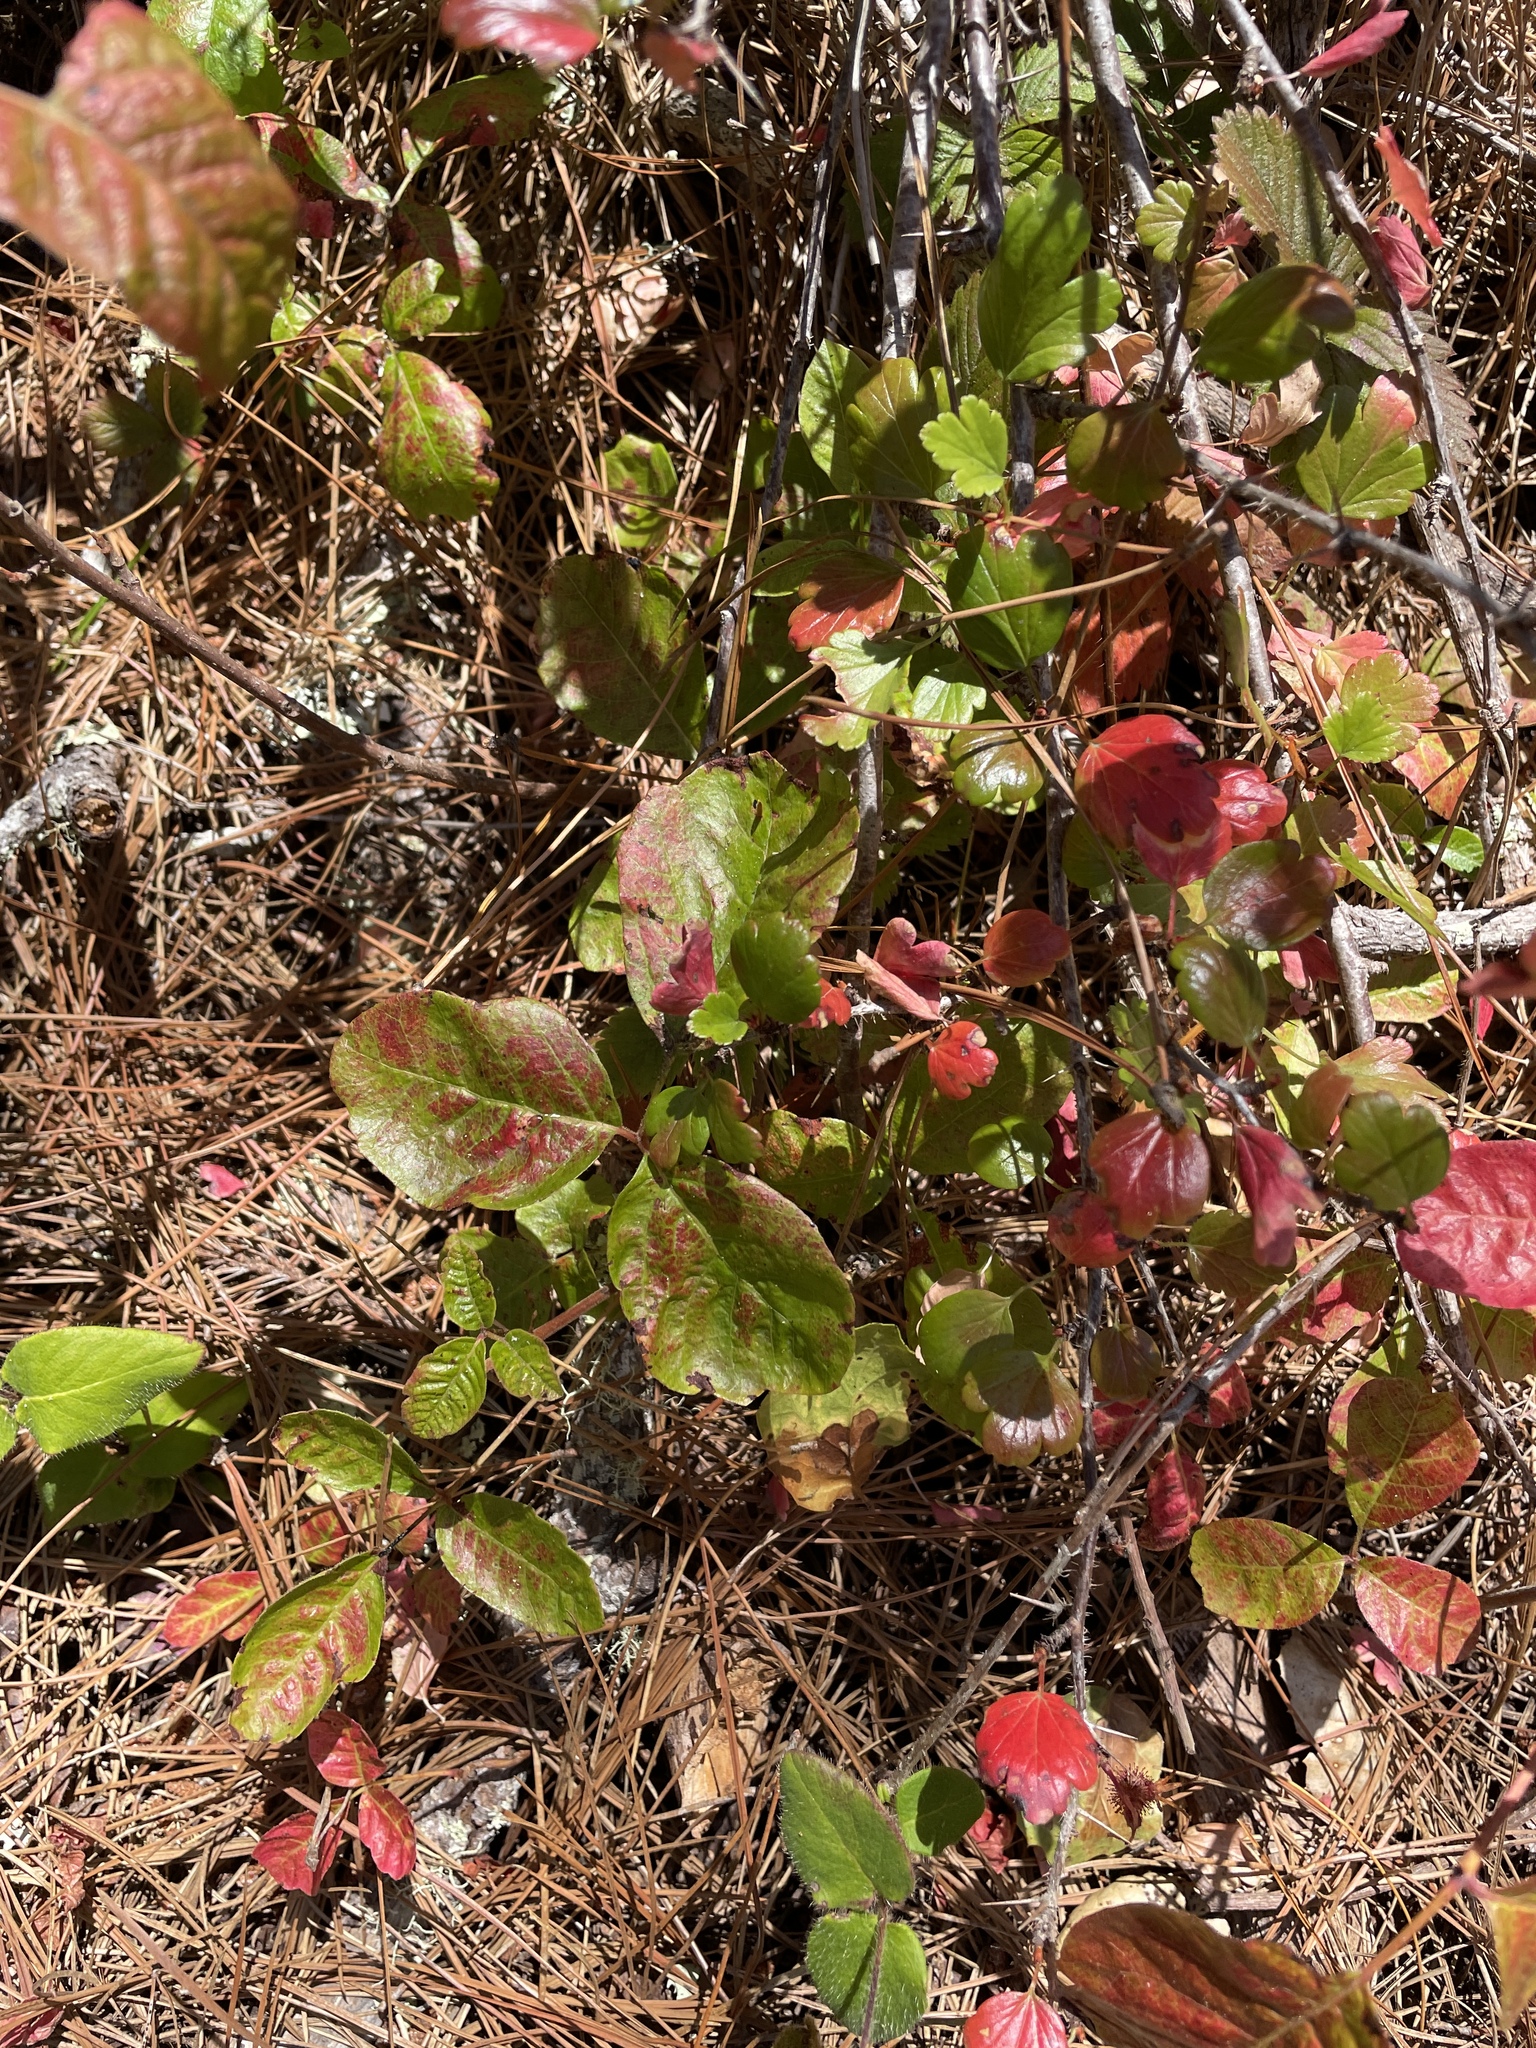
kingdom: Plantae
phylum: Tracheophyta
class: Magnoliopsida
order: Sapindales
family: Anacardiaceae
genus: Toxicodendron
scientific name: Toxicodendron diversilobum
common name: Pacific poison-oak
